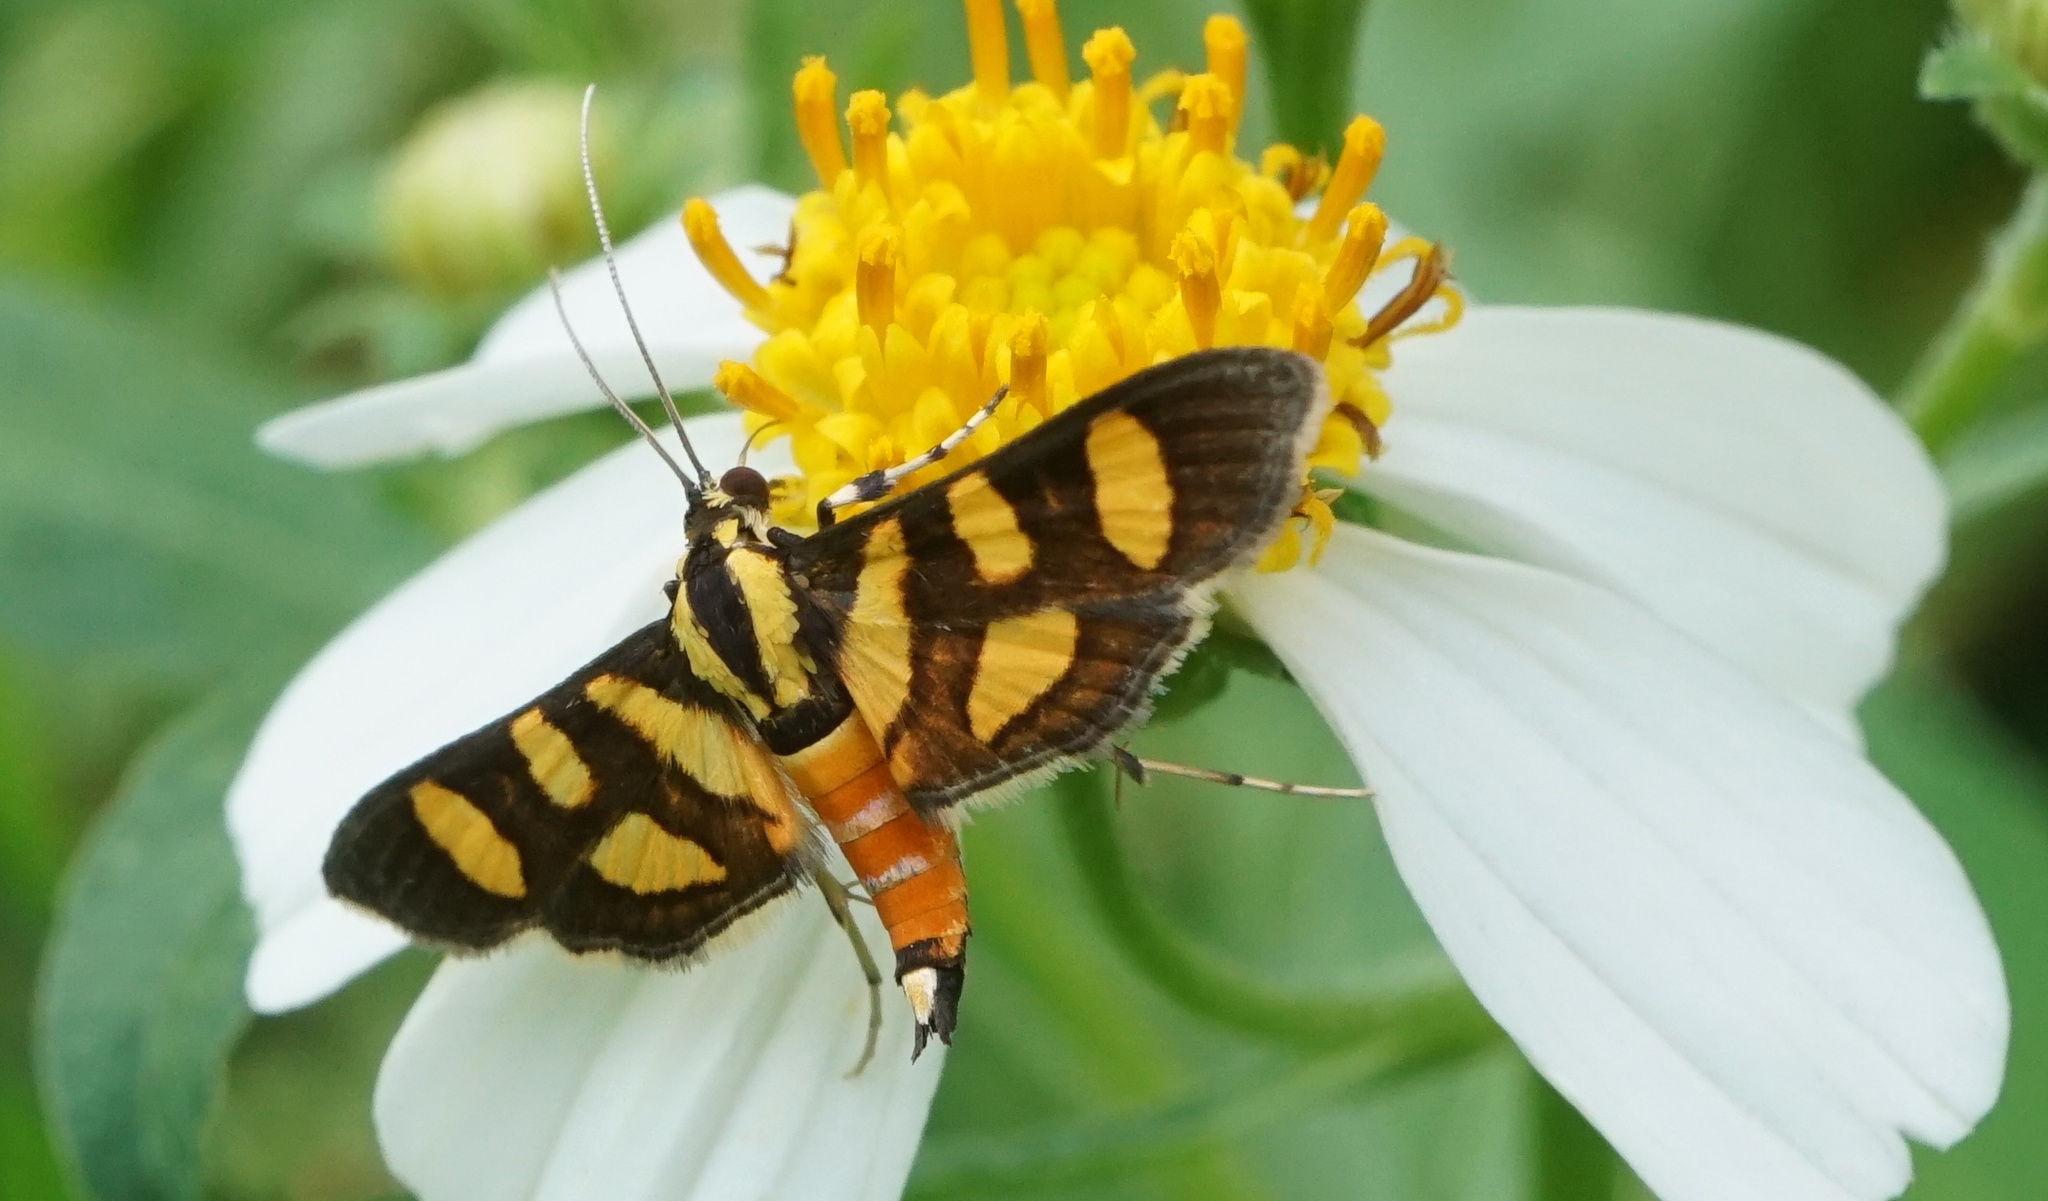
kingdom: Animalia
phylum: Arthropoda
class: Insecta
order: Lepidoptera
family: Crambidae
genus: Syngamia
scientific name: Syngamia florella
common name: Orange-spotted flower moth
